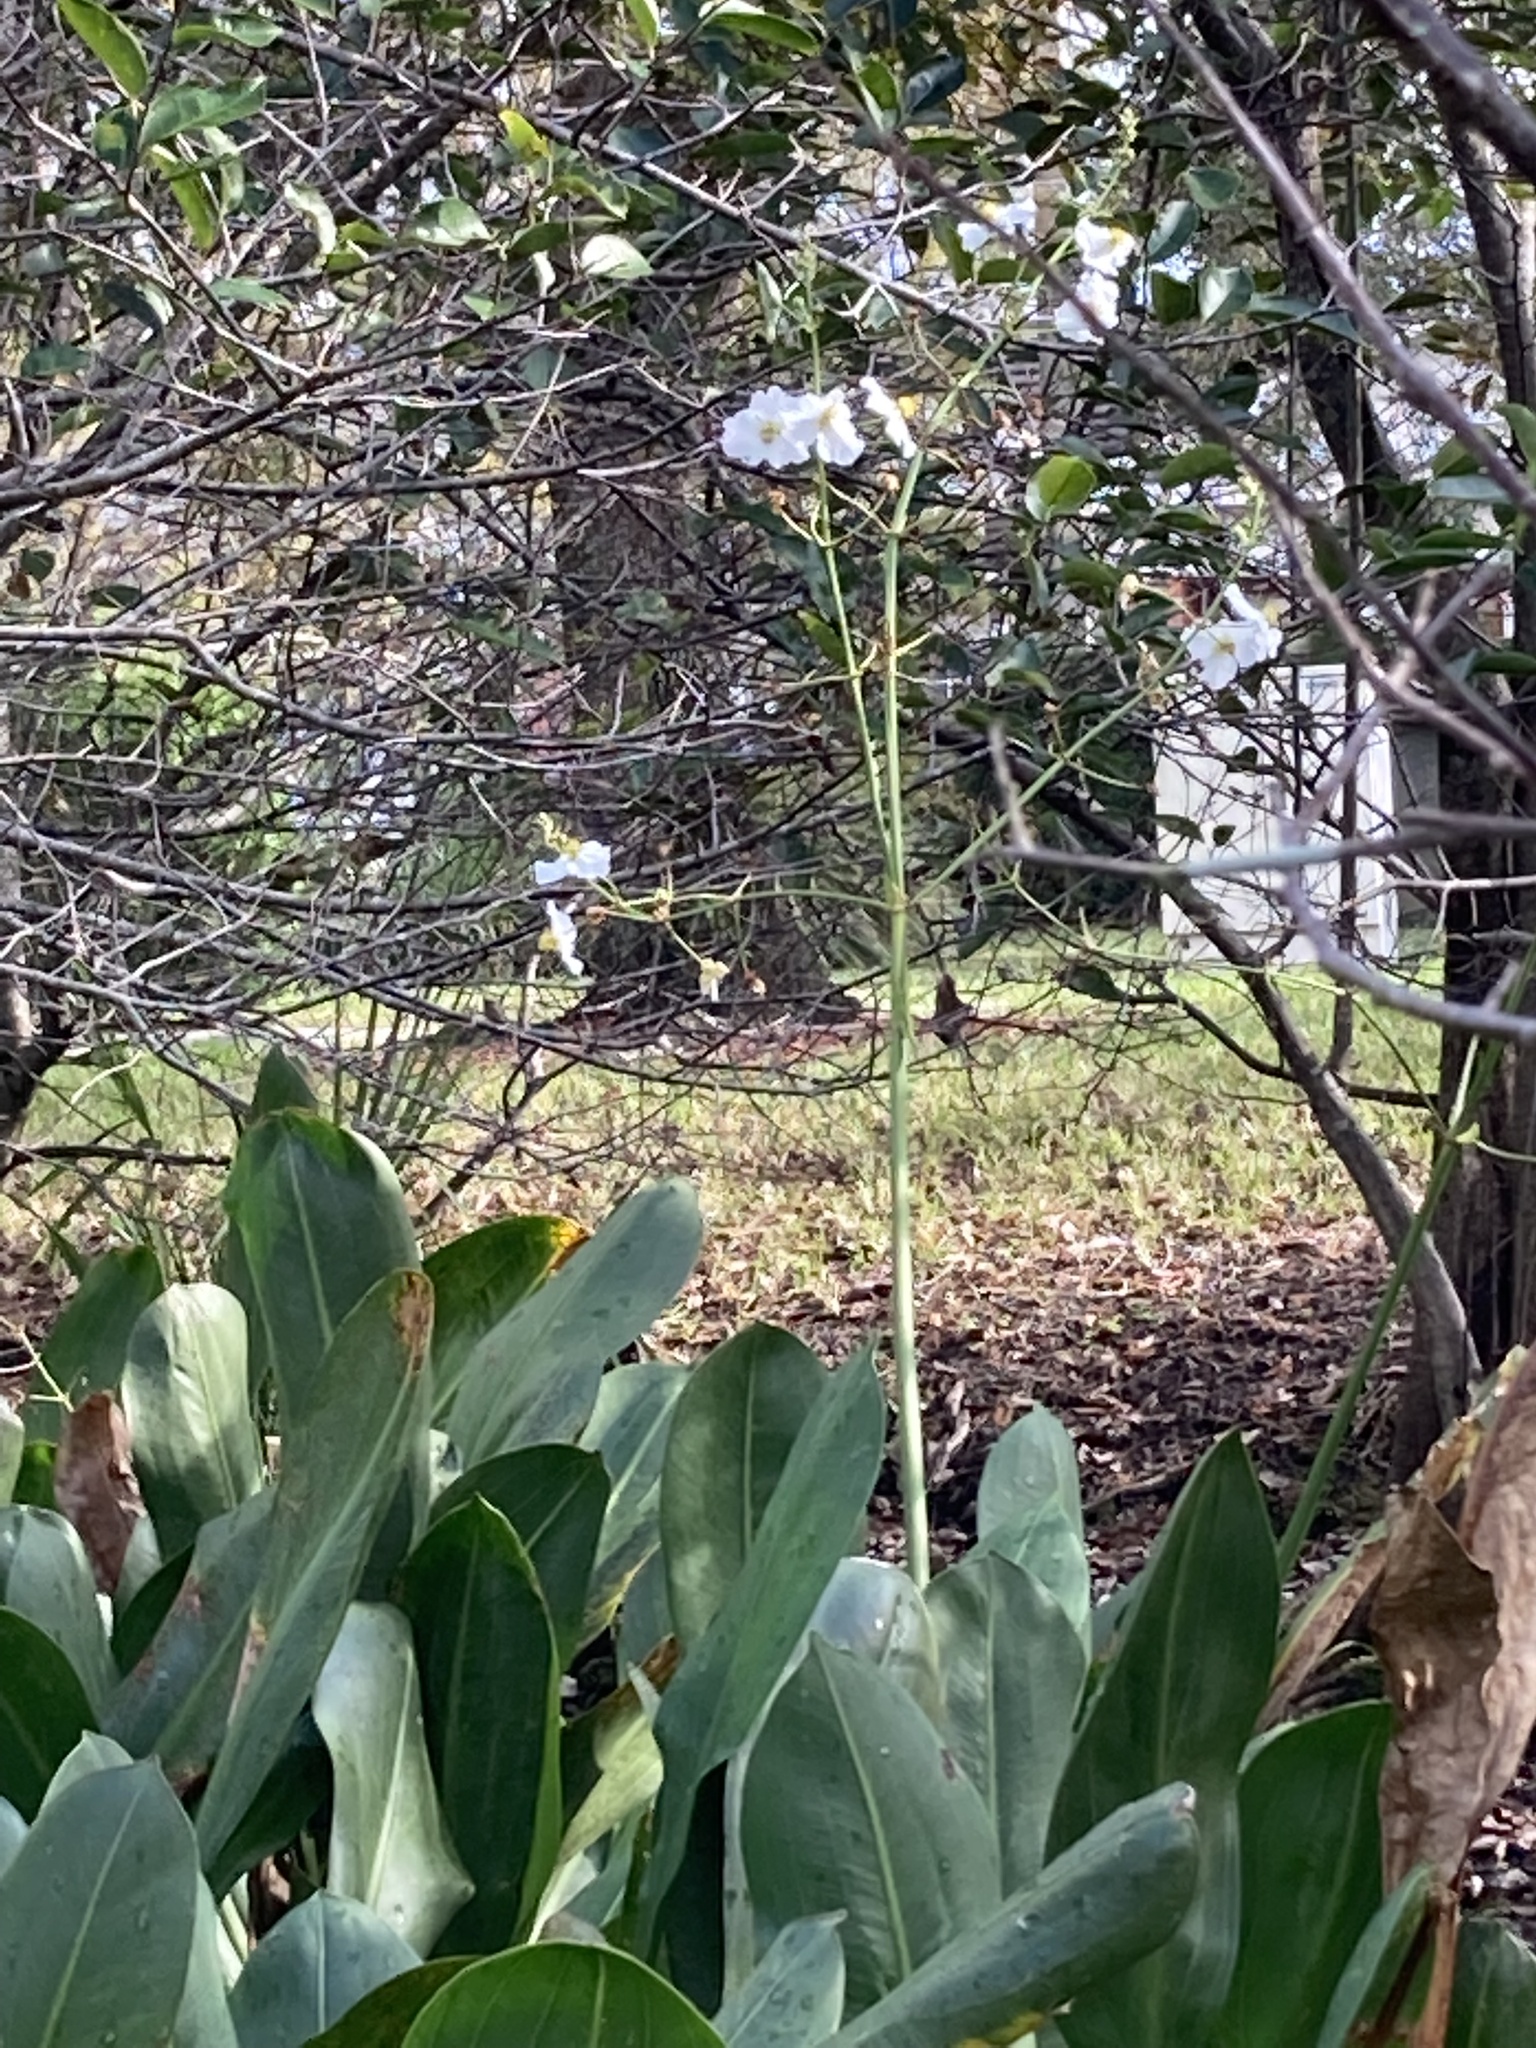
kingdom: Plantae
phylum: Tracheophyta
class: Liliopsida
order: Alismatales
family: Alismataceae
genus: Sagittaria
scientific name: Sagittaria lancifolia
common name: Lance-leaf arrowhead
